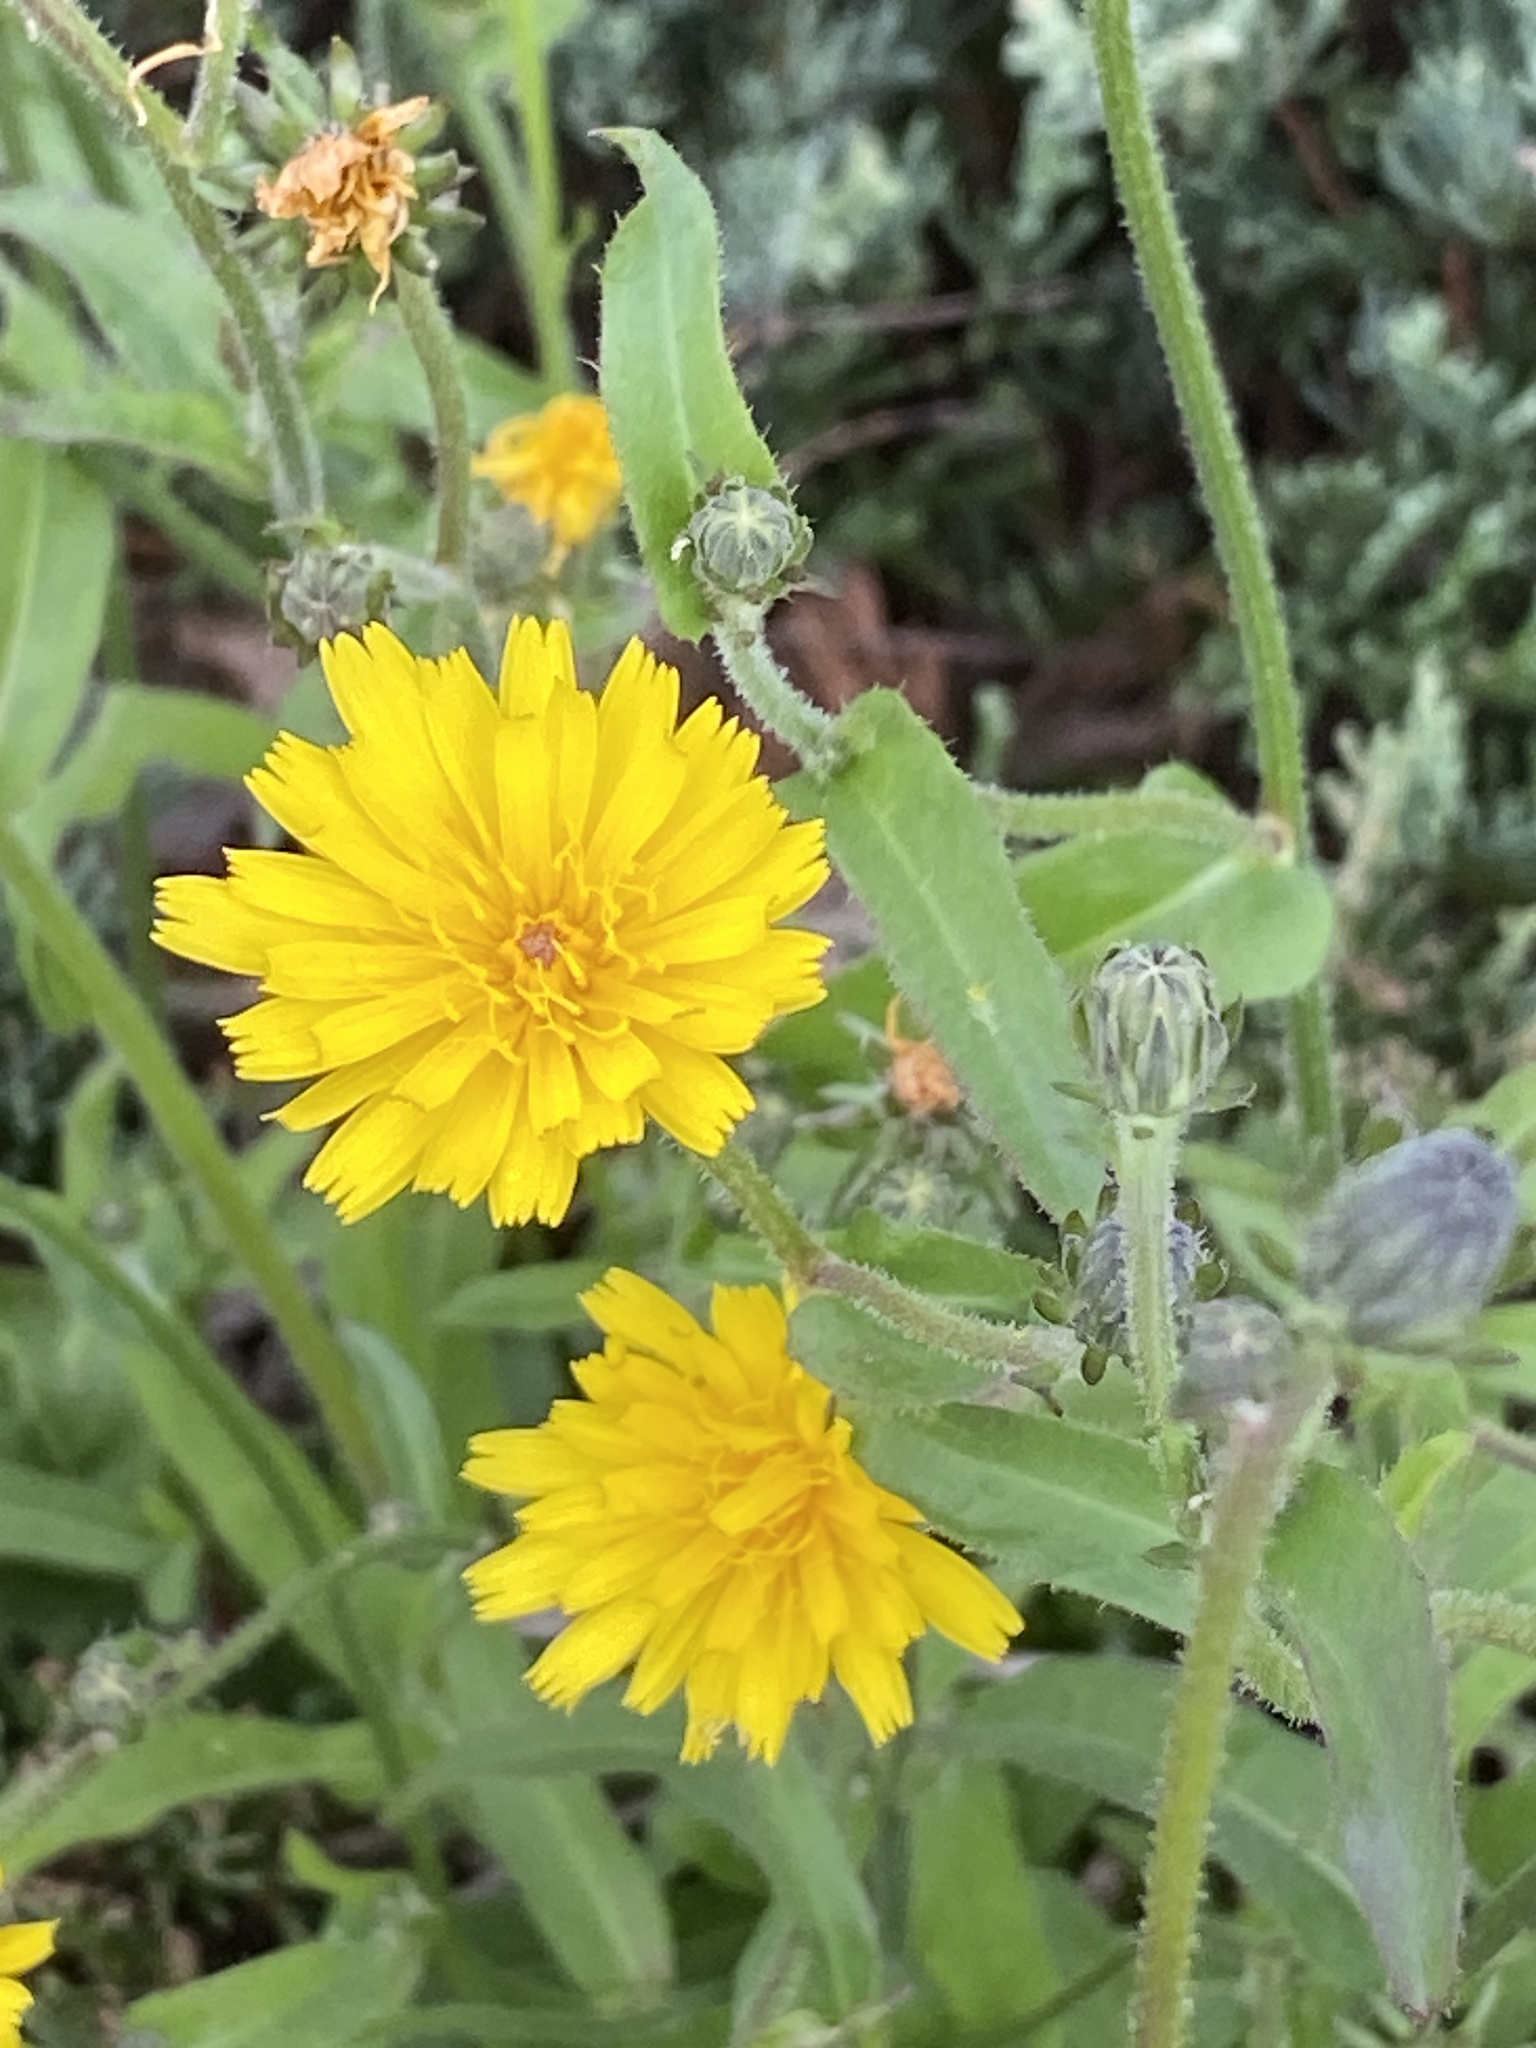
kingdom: Plantae
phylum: Tracheophyta
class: Magnoliopsida
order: Asterales
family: Asteraceae
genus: Picris
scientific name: Picris hieracioides
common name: Hawkweed oxtongue
